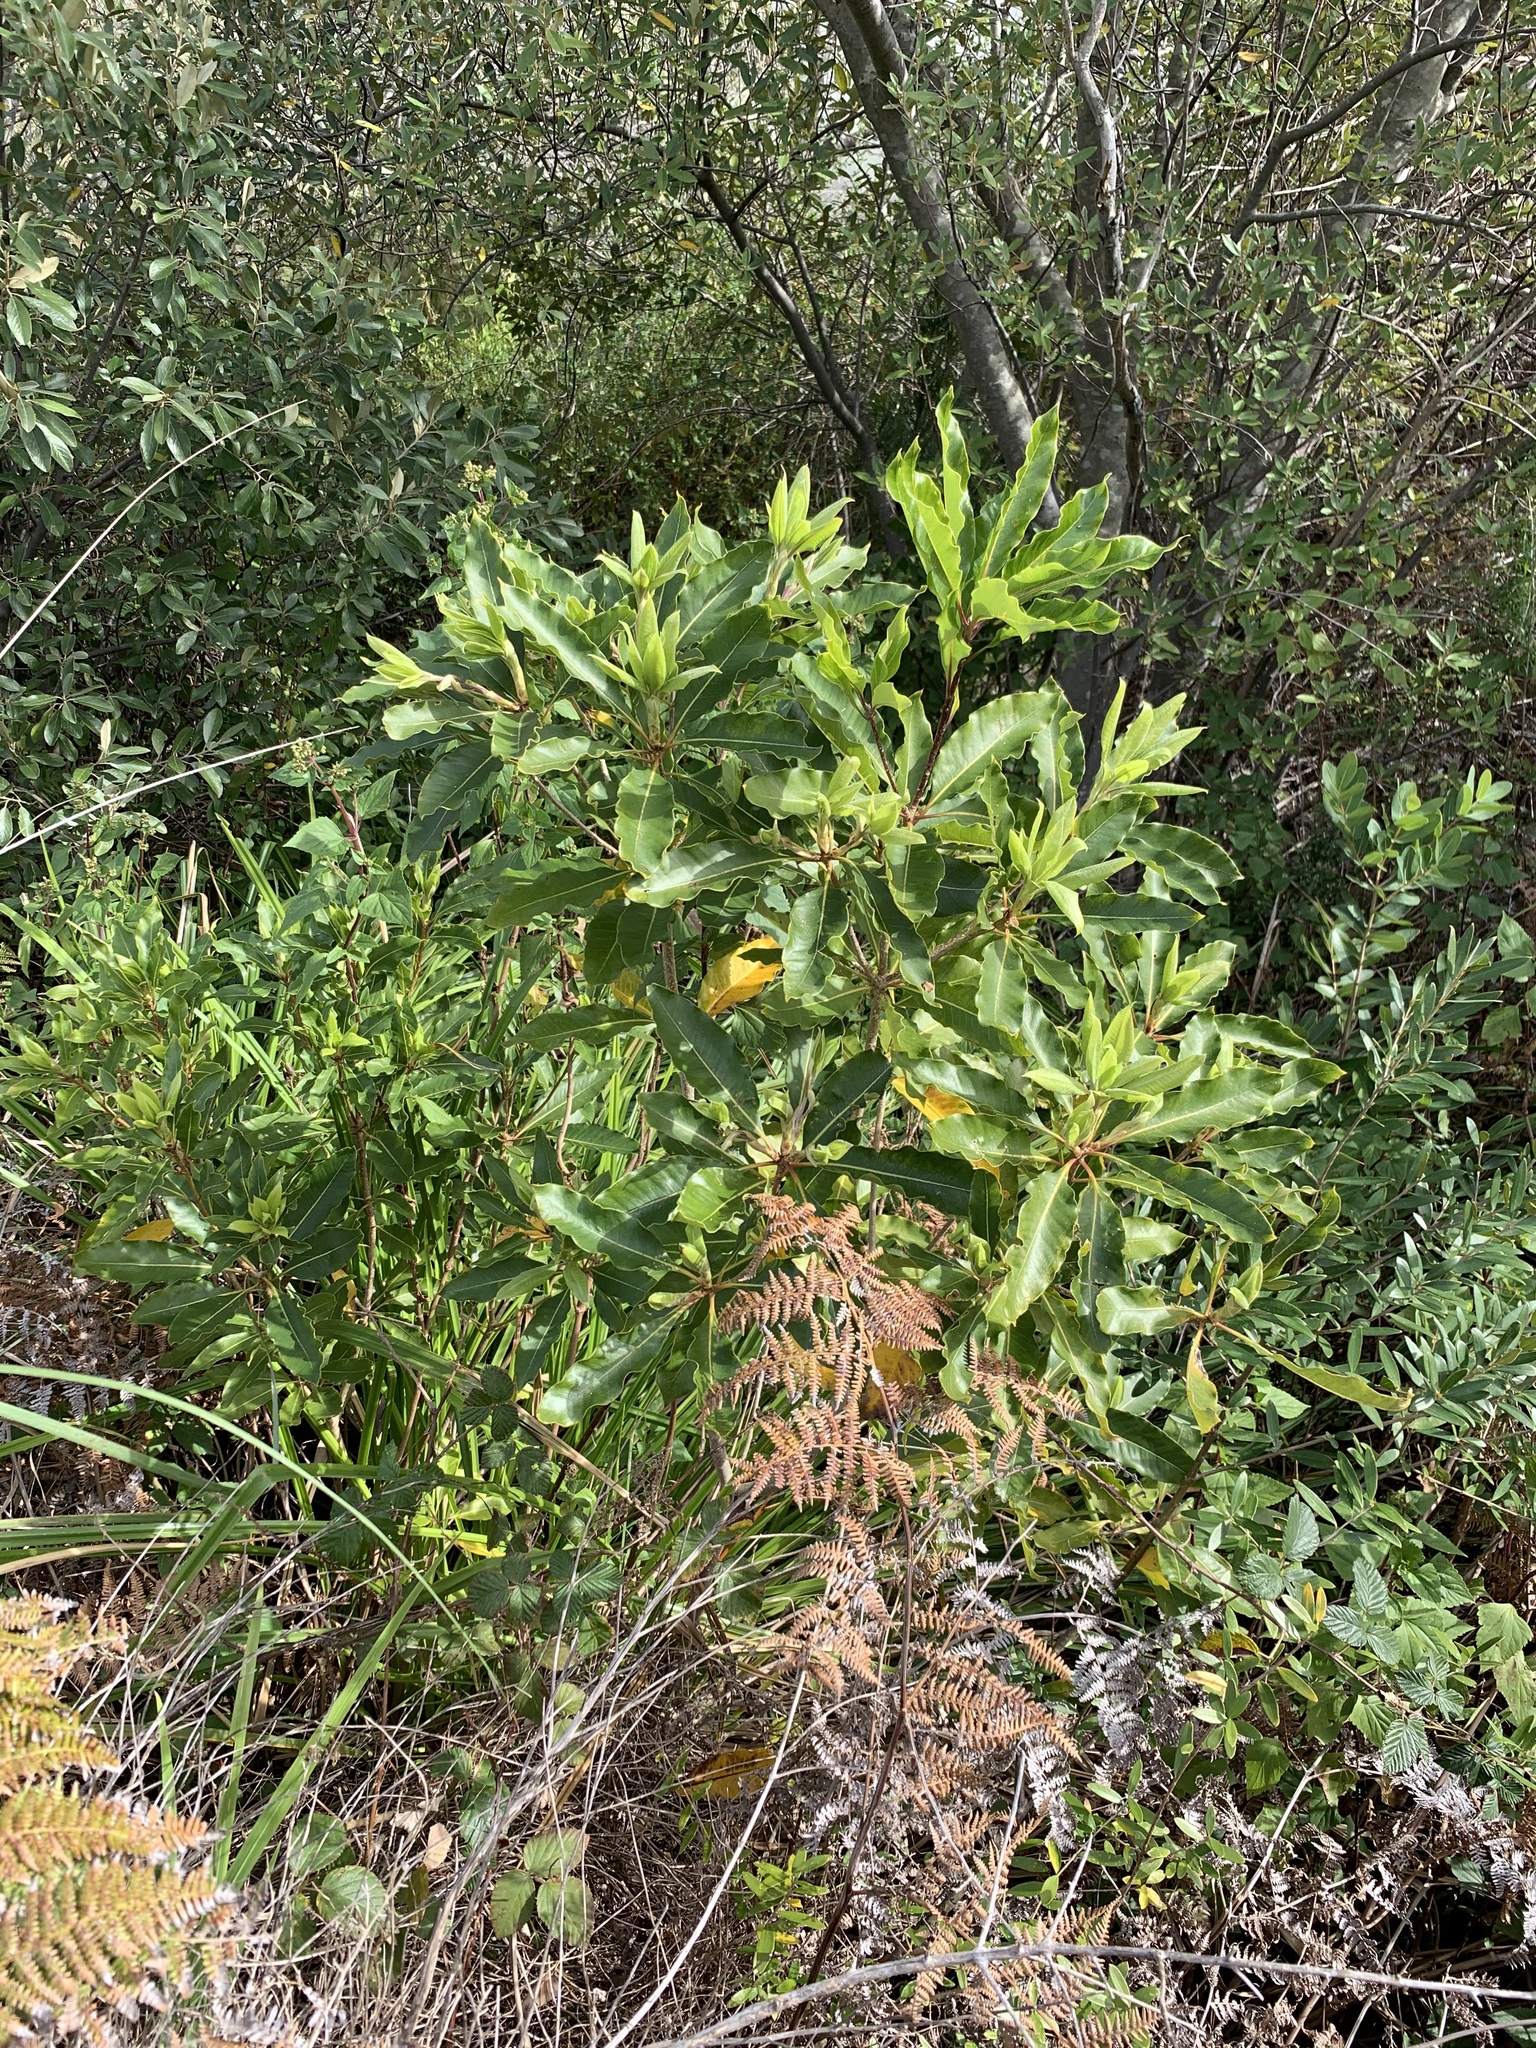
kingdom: Plantae
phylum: Tracheophyta
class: Magnoliopsida
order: Apiales
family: Pittosporaceae
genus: Pittosporum
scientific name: Pittosporum undulatum
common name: Australian cheesewood
